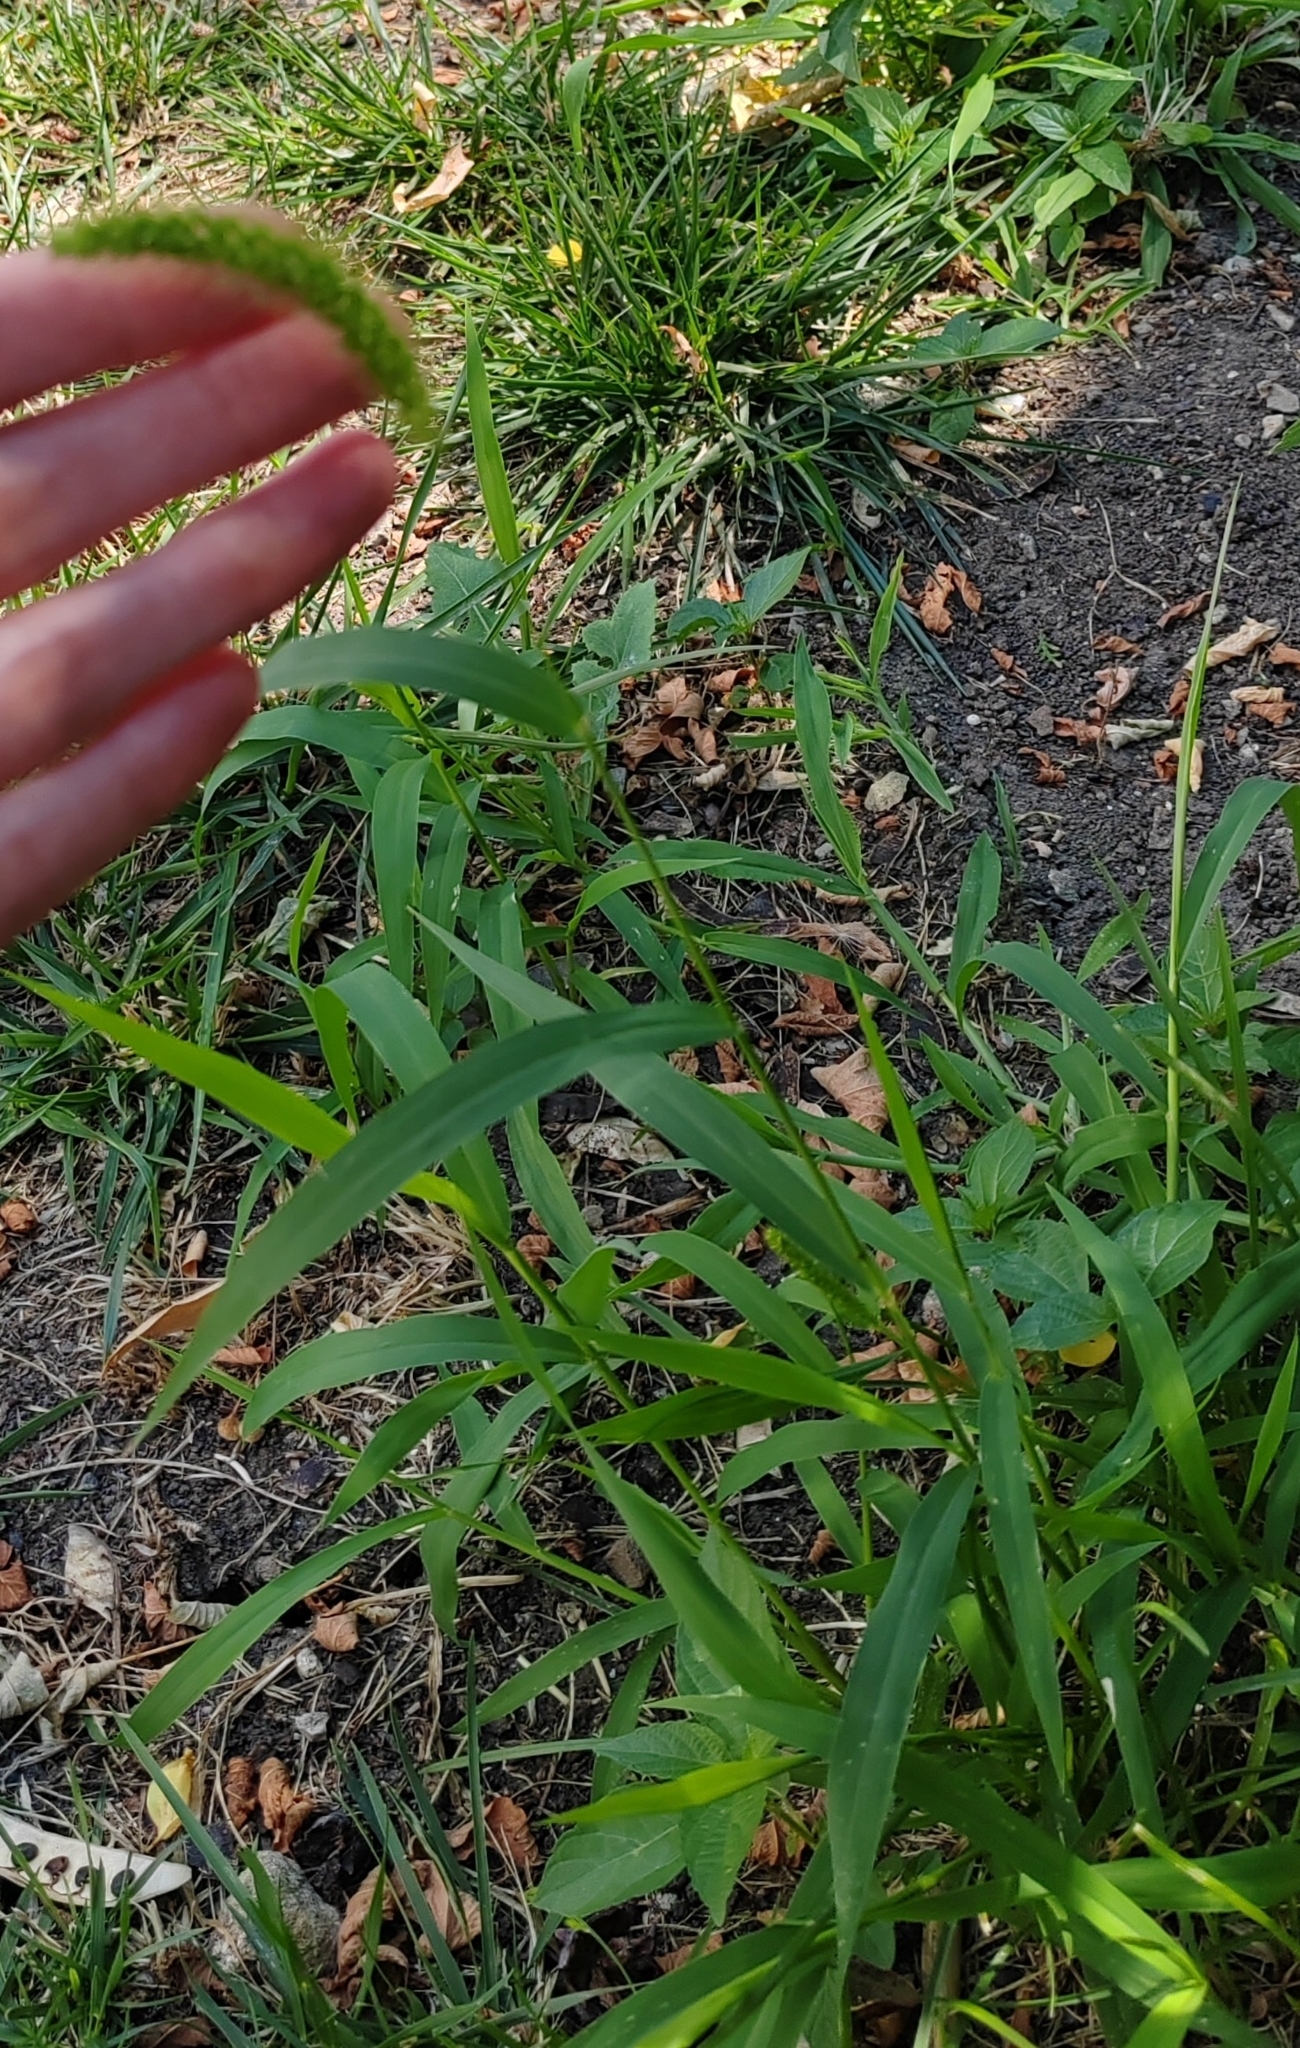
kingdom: Plantae
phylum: Tracheophyta
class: Liliopsida
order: Poales
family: Poaceae
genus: Setaria
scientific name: Setaria viridis
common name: Green bristlegrass
